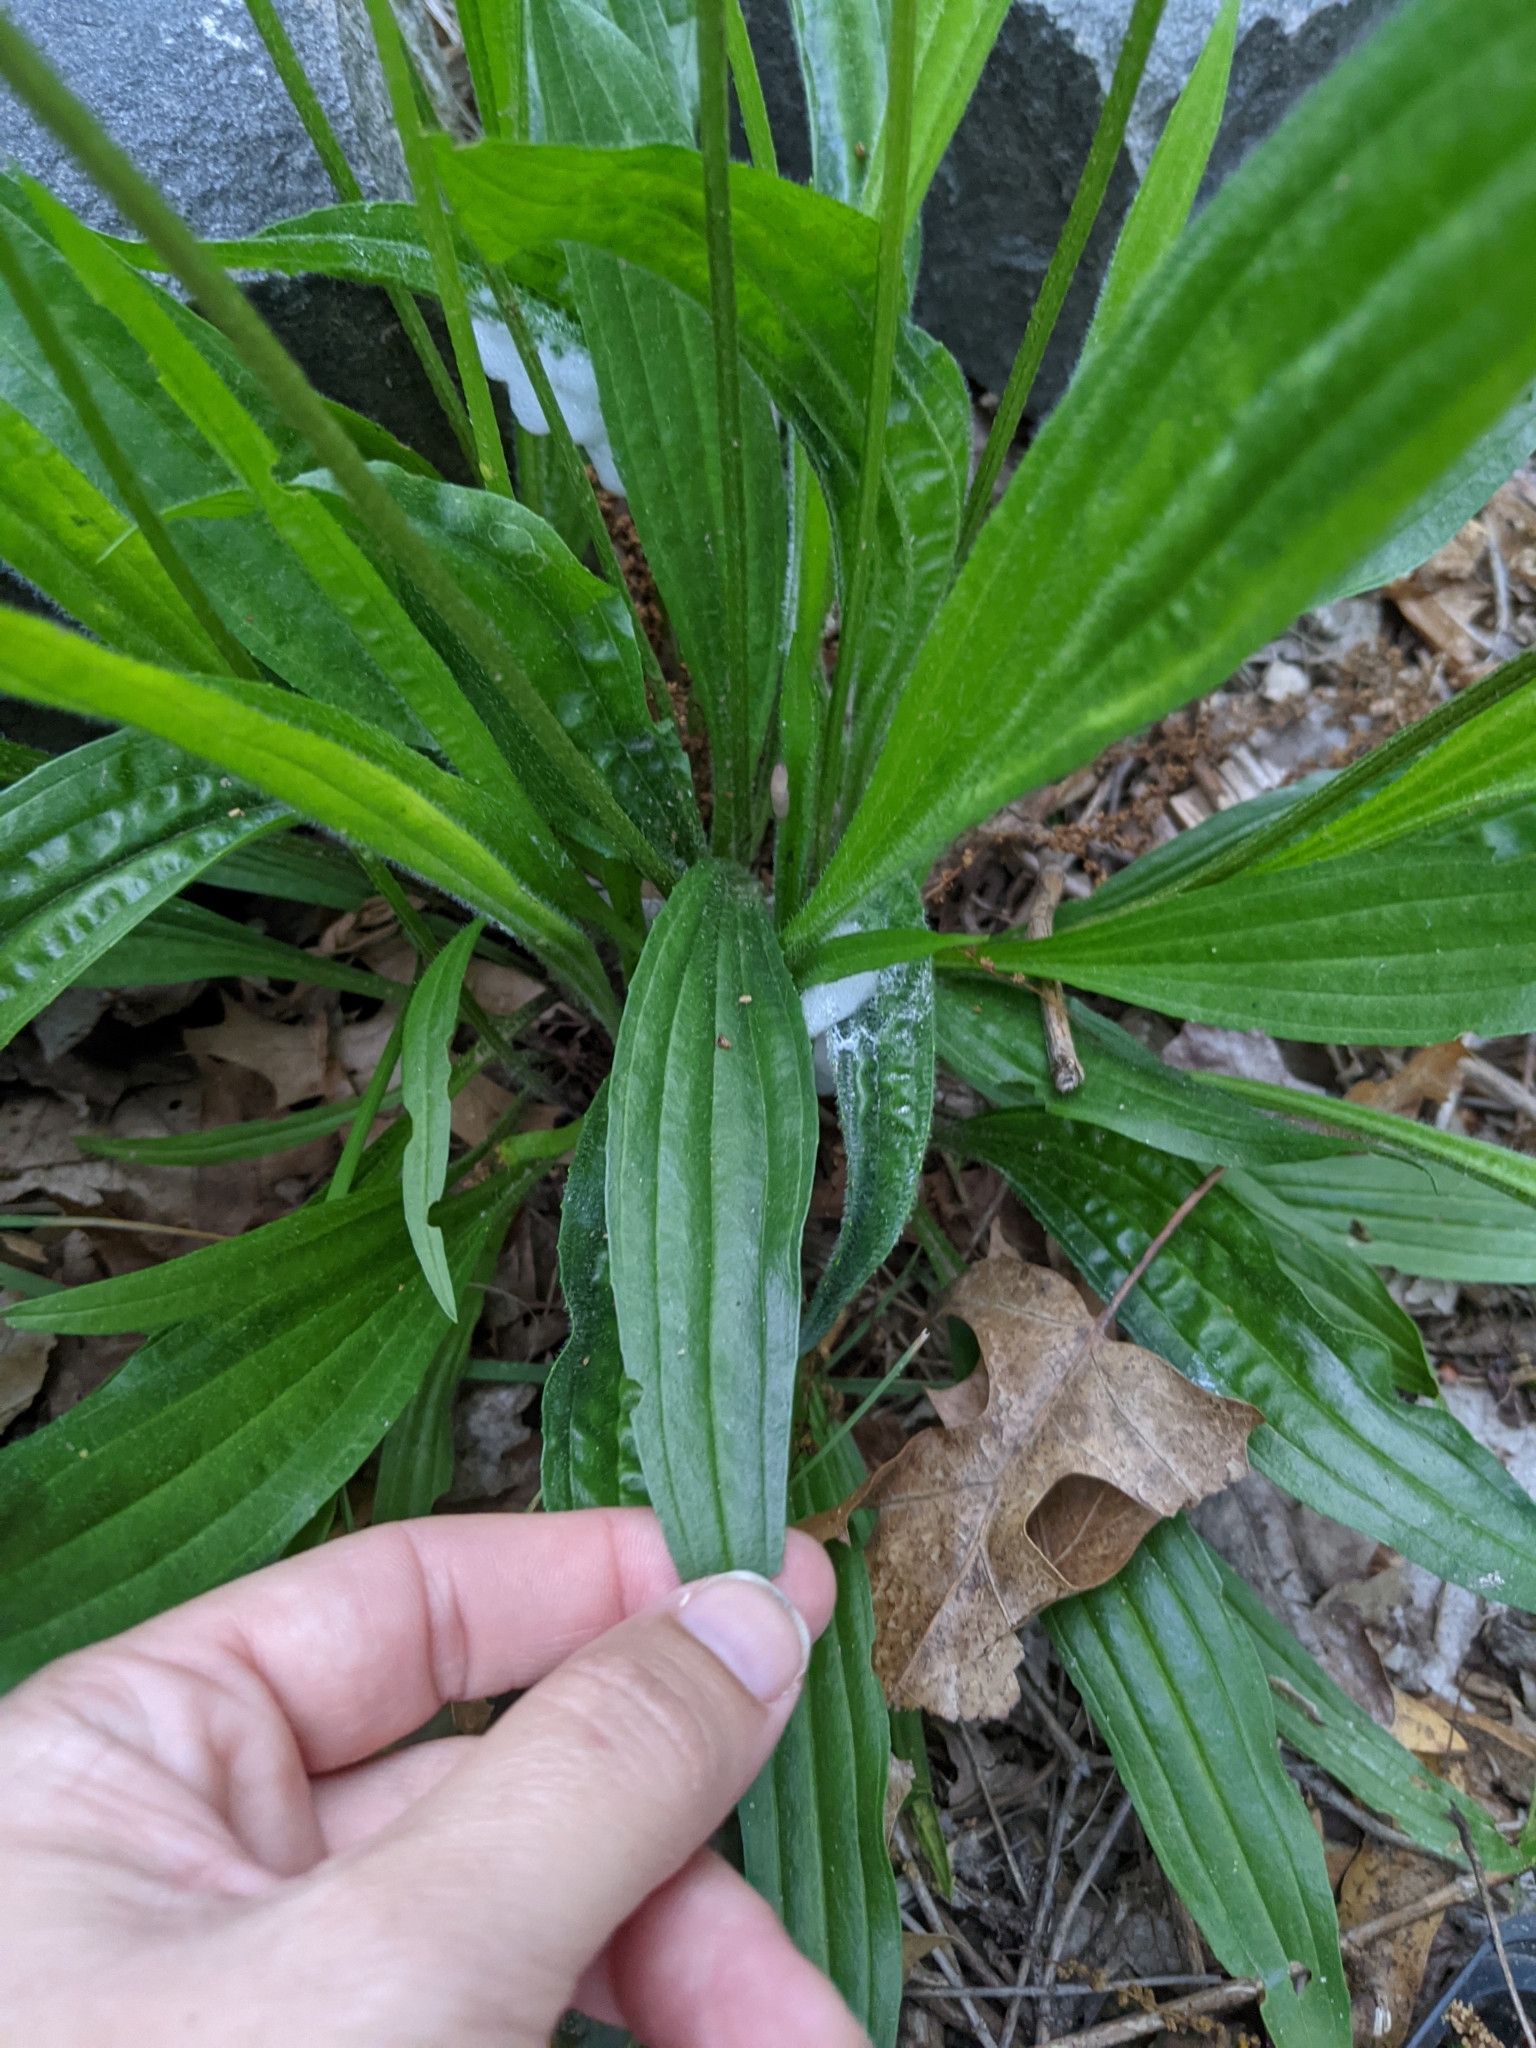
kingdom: Plantae
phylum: Tracheophyta
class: Magnoliopsida
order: Lamiales
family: Plantaginaceae
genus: Plantago
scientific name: Plantago lanceolata
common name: Ribwort plantain
